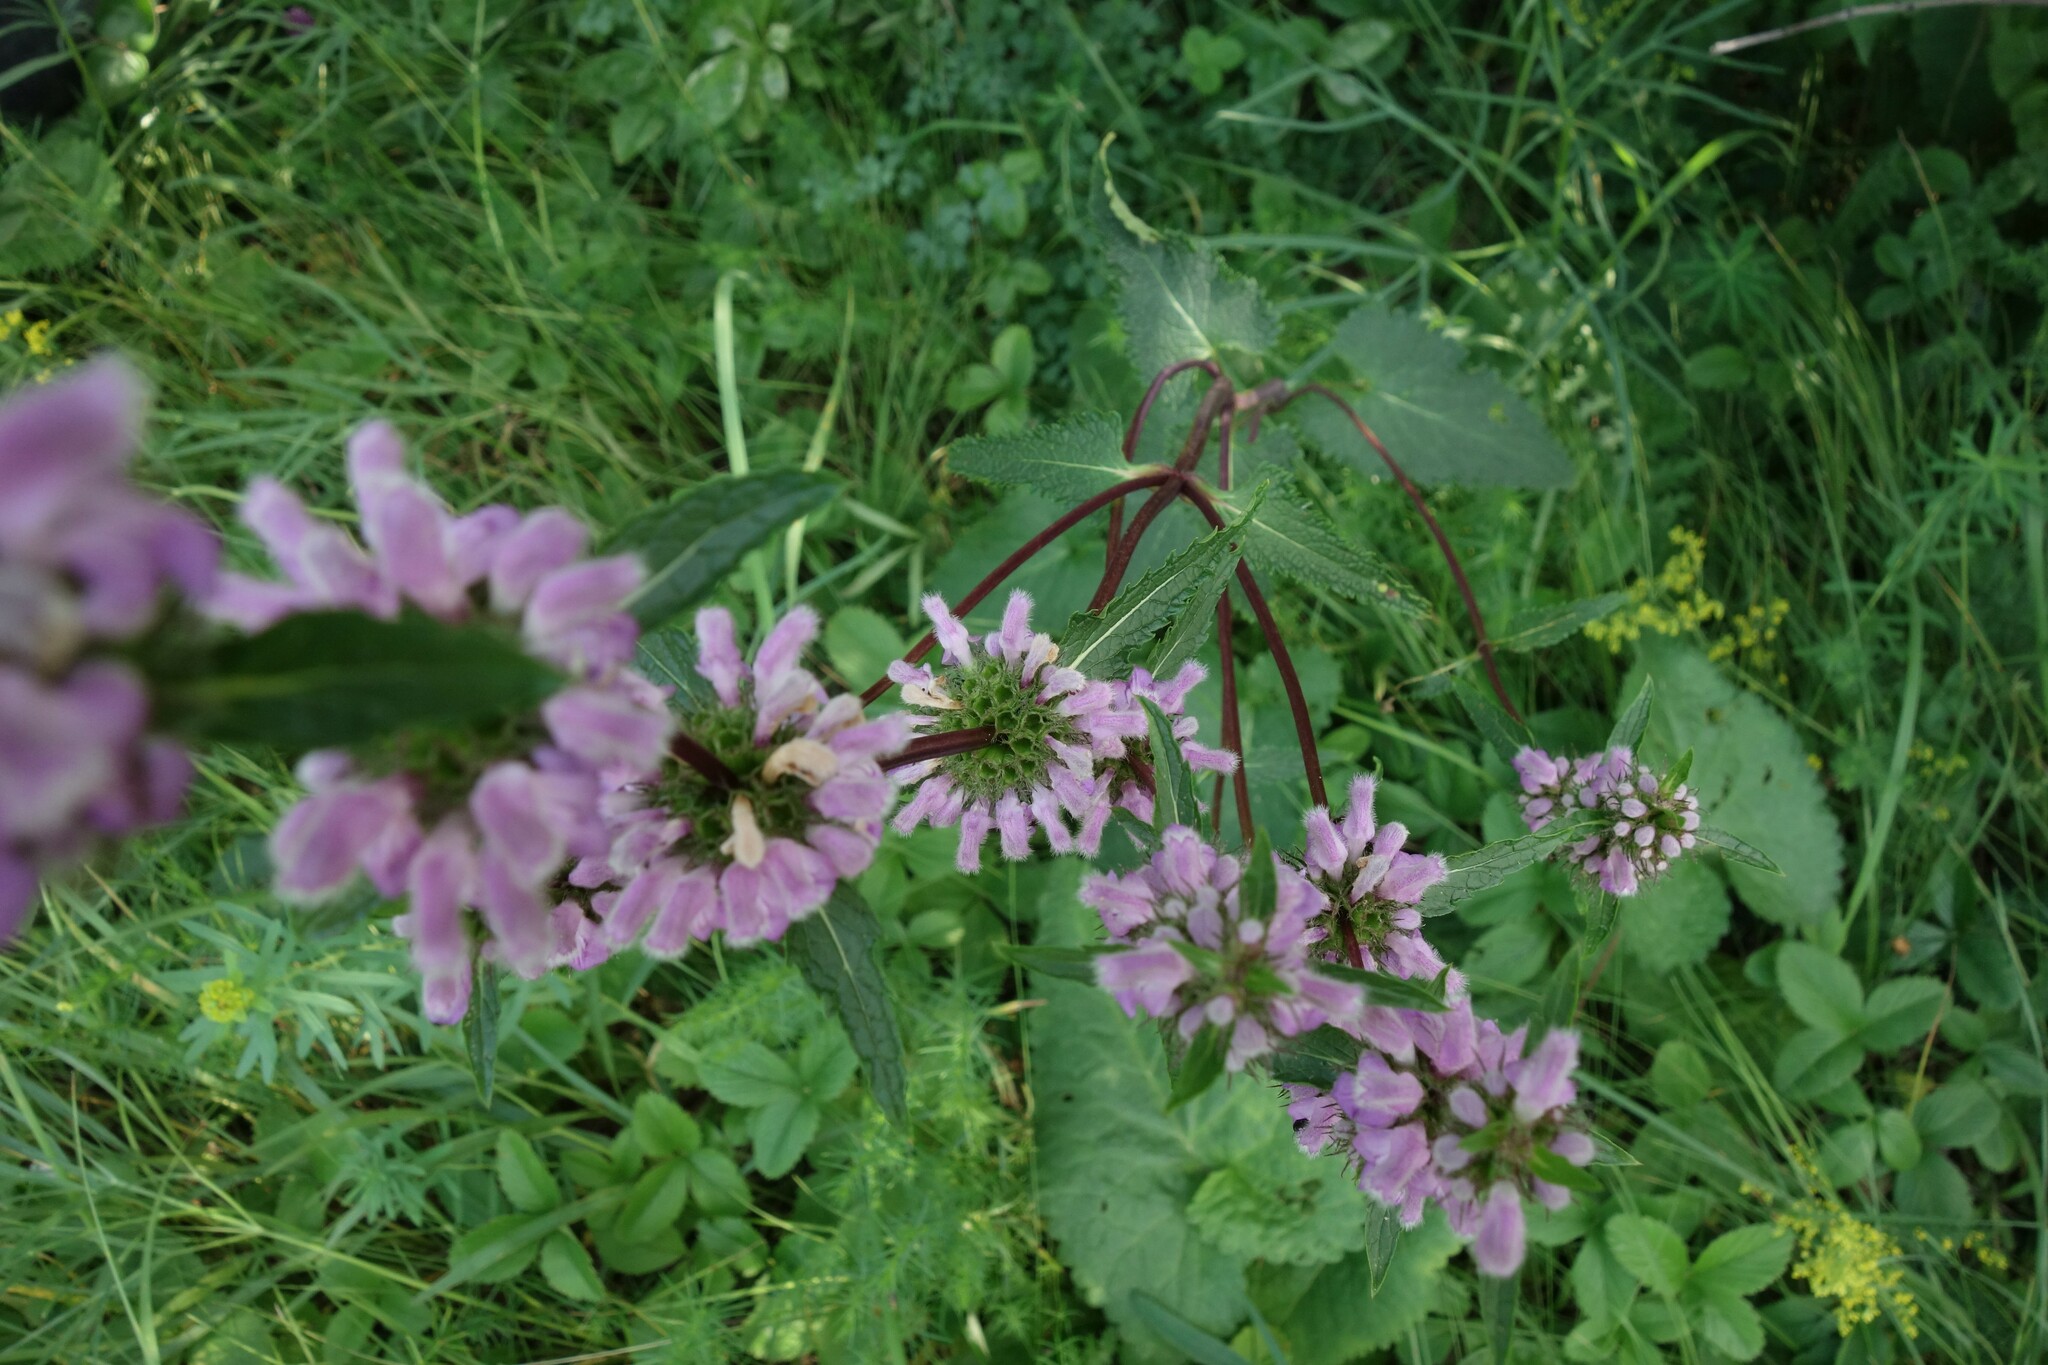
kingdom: Plantae
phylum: Tracheophyta
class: Magnoliopsida
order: Lamiales
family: Lamiaceae
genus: Phlomoides
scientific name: Phlomoides tuberosa
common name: Tuberous jerusalem sage
